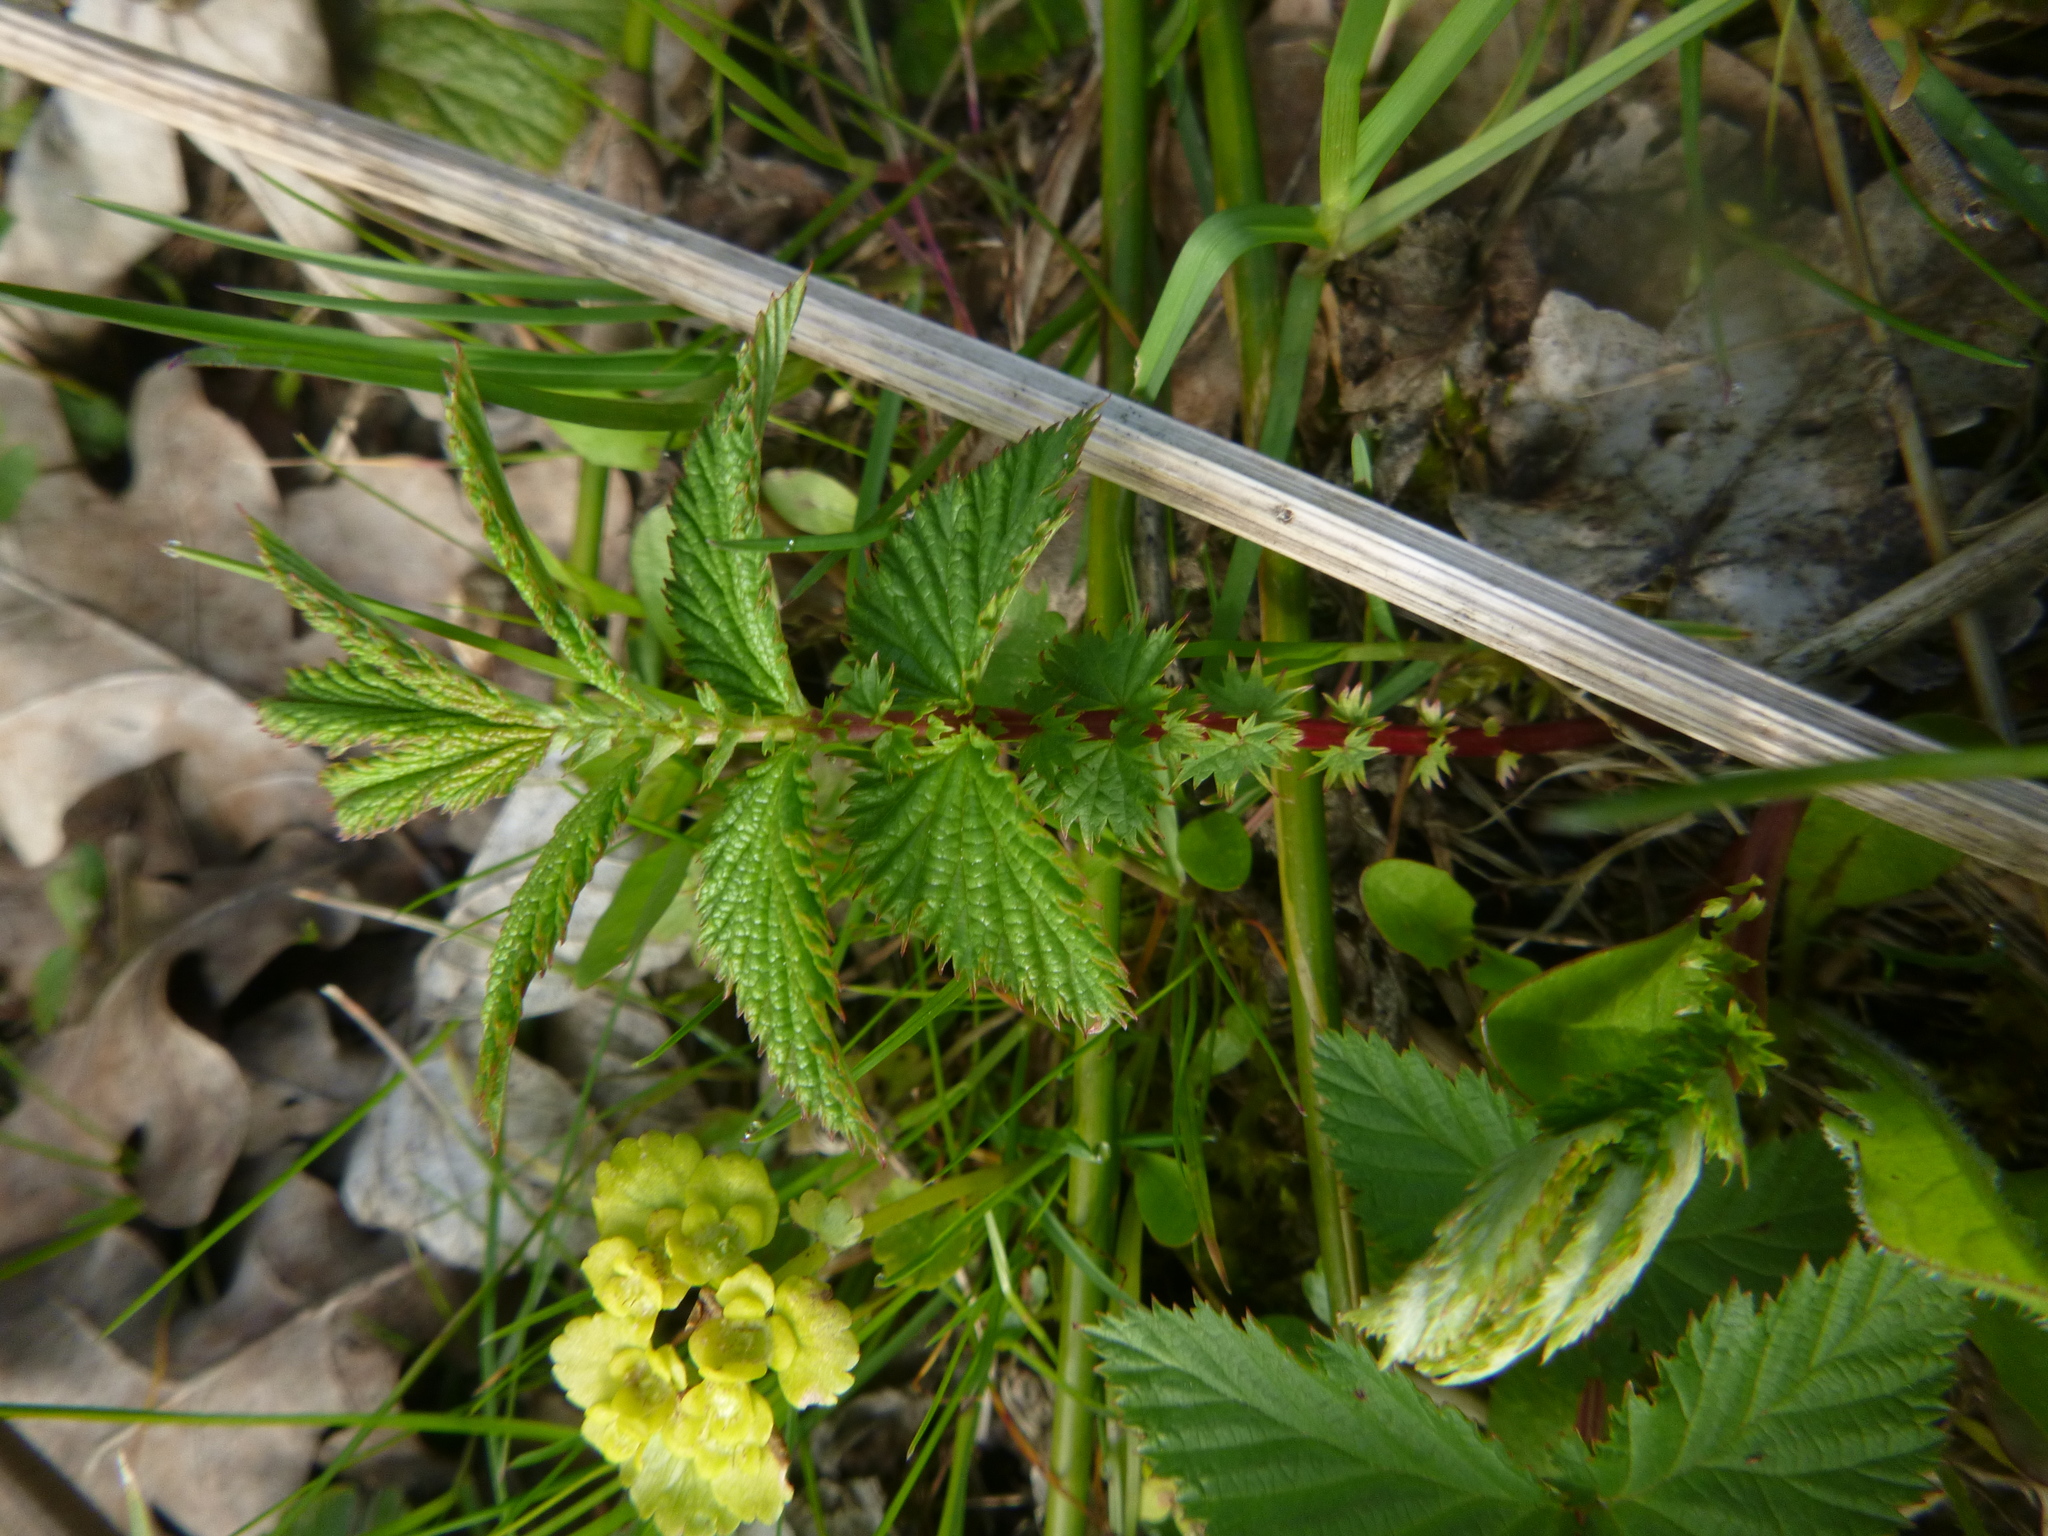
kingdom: Plantae
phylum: Tracheophyta
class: Magnoliopsida
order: Rosales
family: Rosaceae
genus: Filipendula
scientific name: Filipendula ulmaria
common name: Meadowsweet
